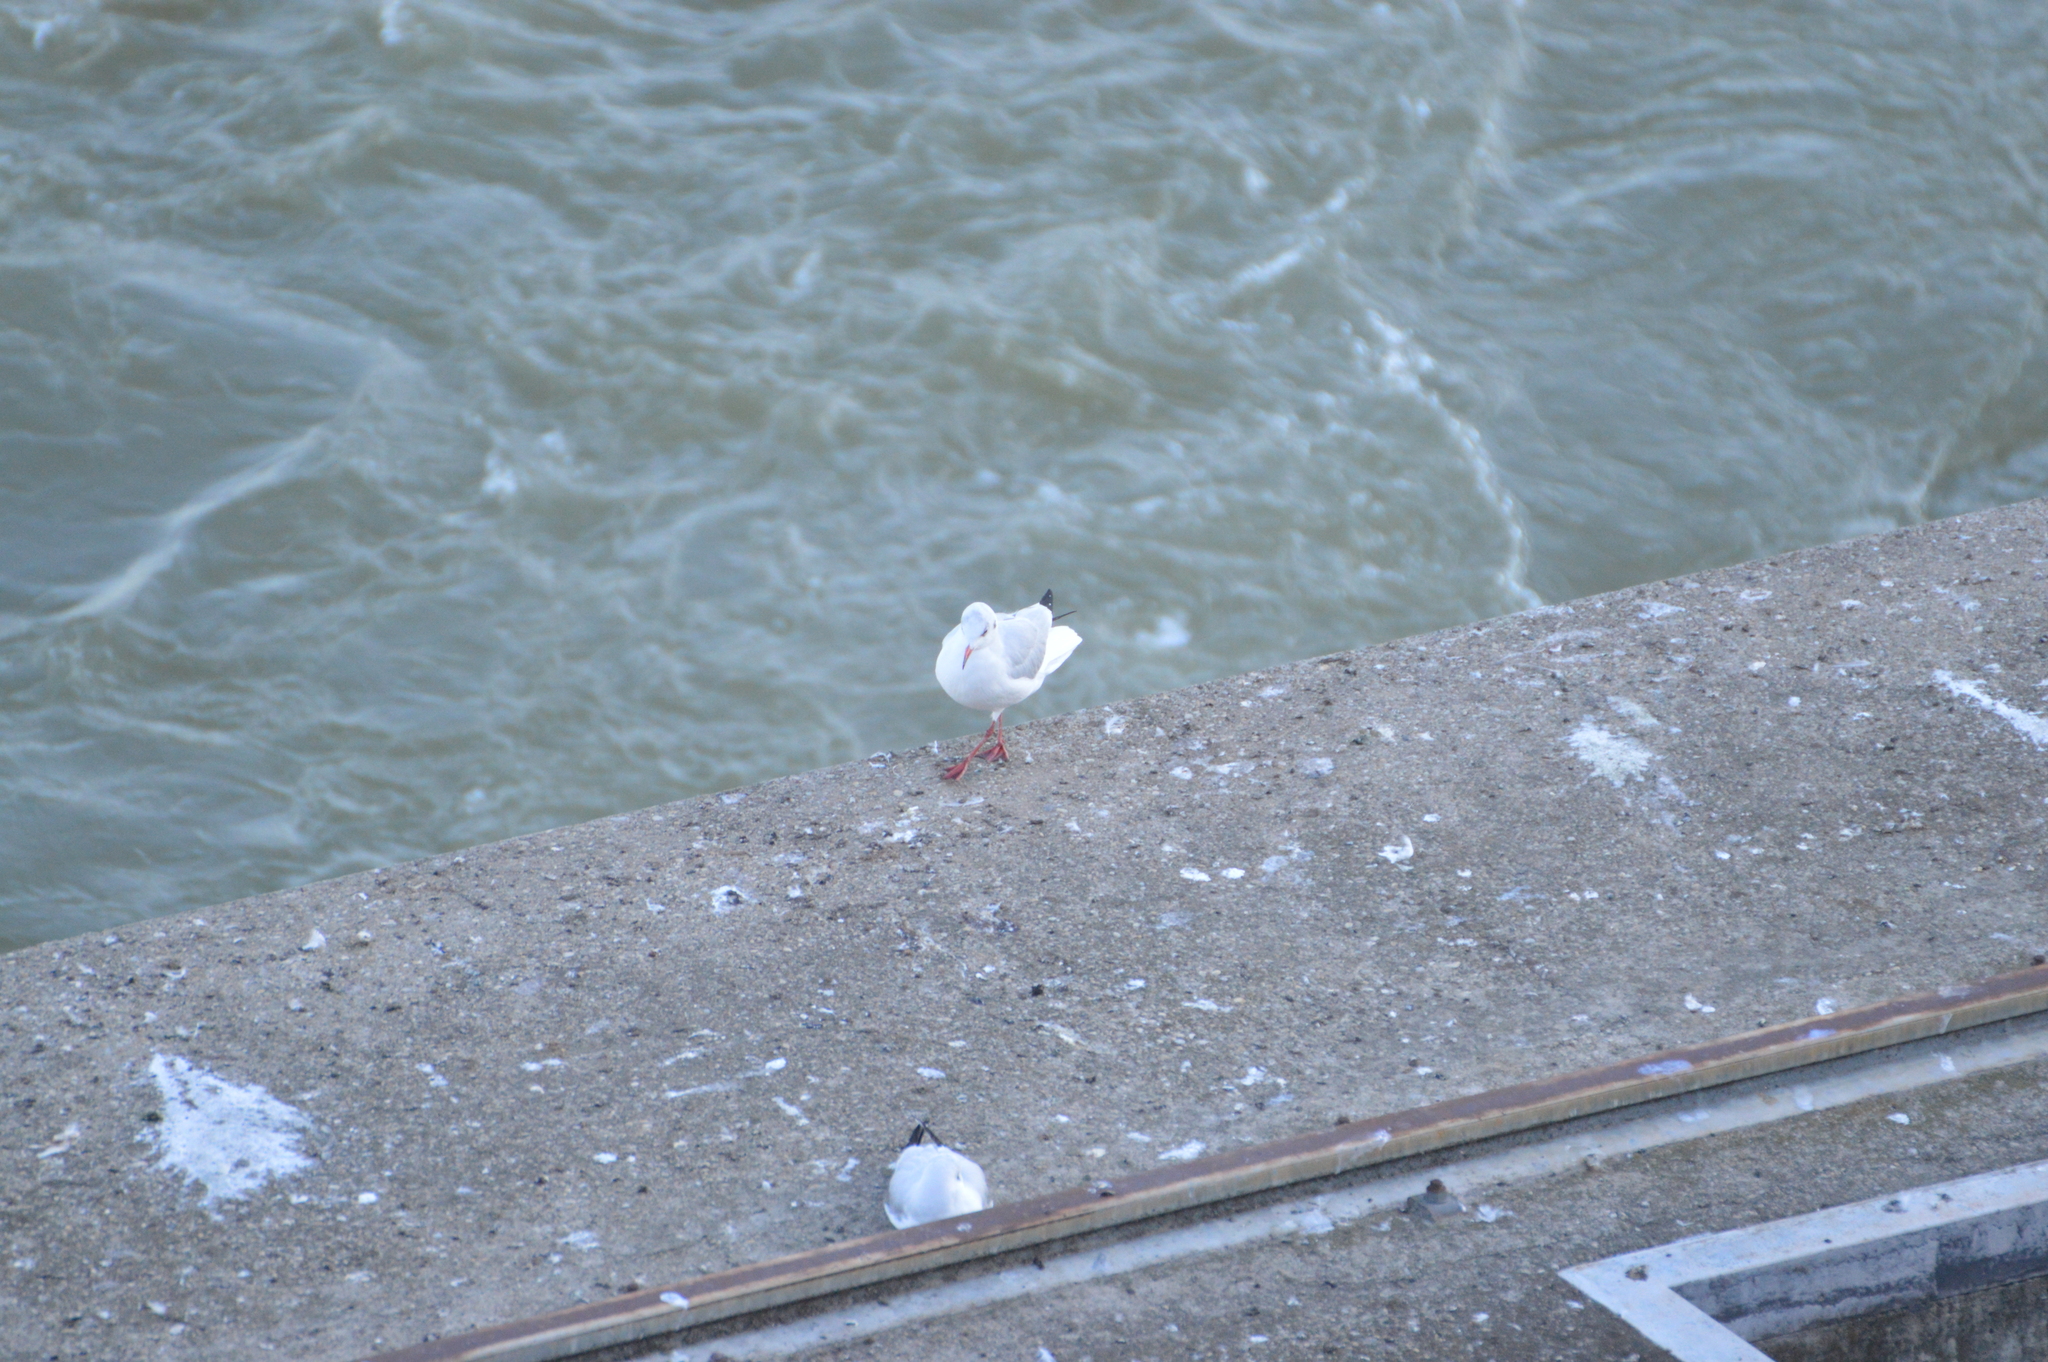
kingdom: Animalia
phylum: Chordata
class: Aves
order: Charadriiformes
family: Laridae
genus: Chroicocephalus
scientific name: Chroicocephalus ridibundus
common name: Black-headed gull
